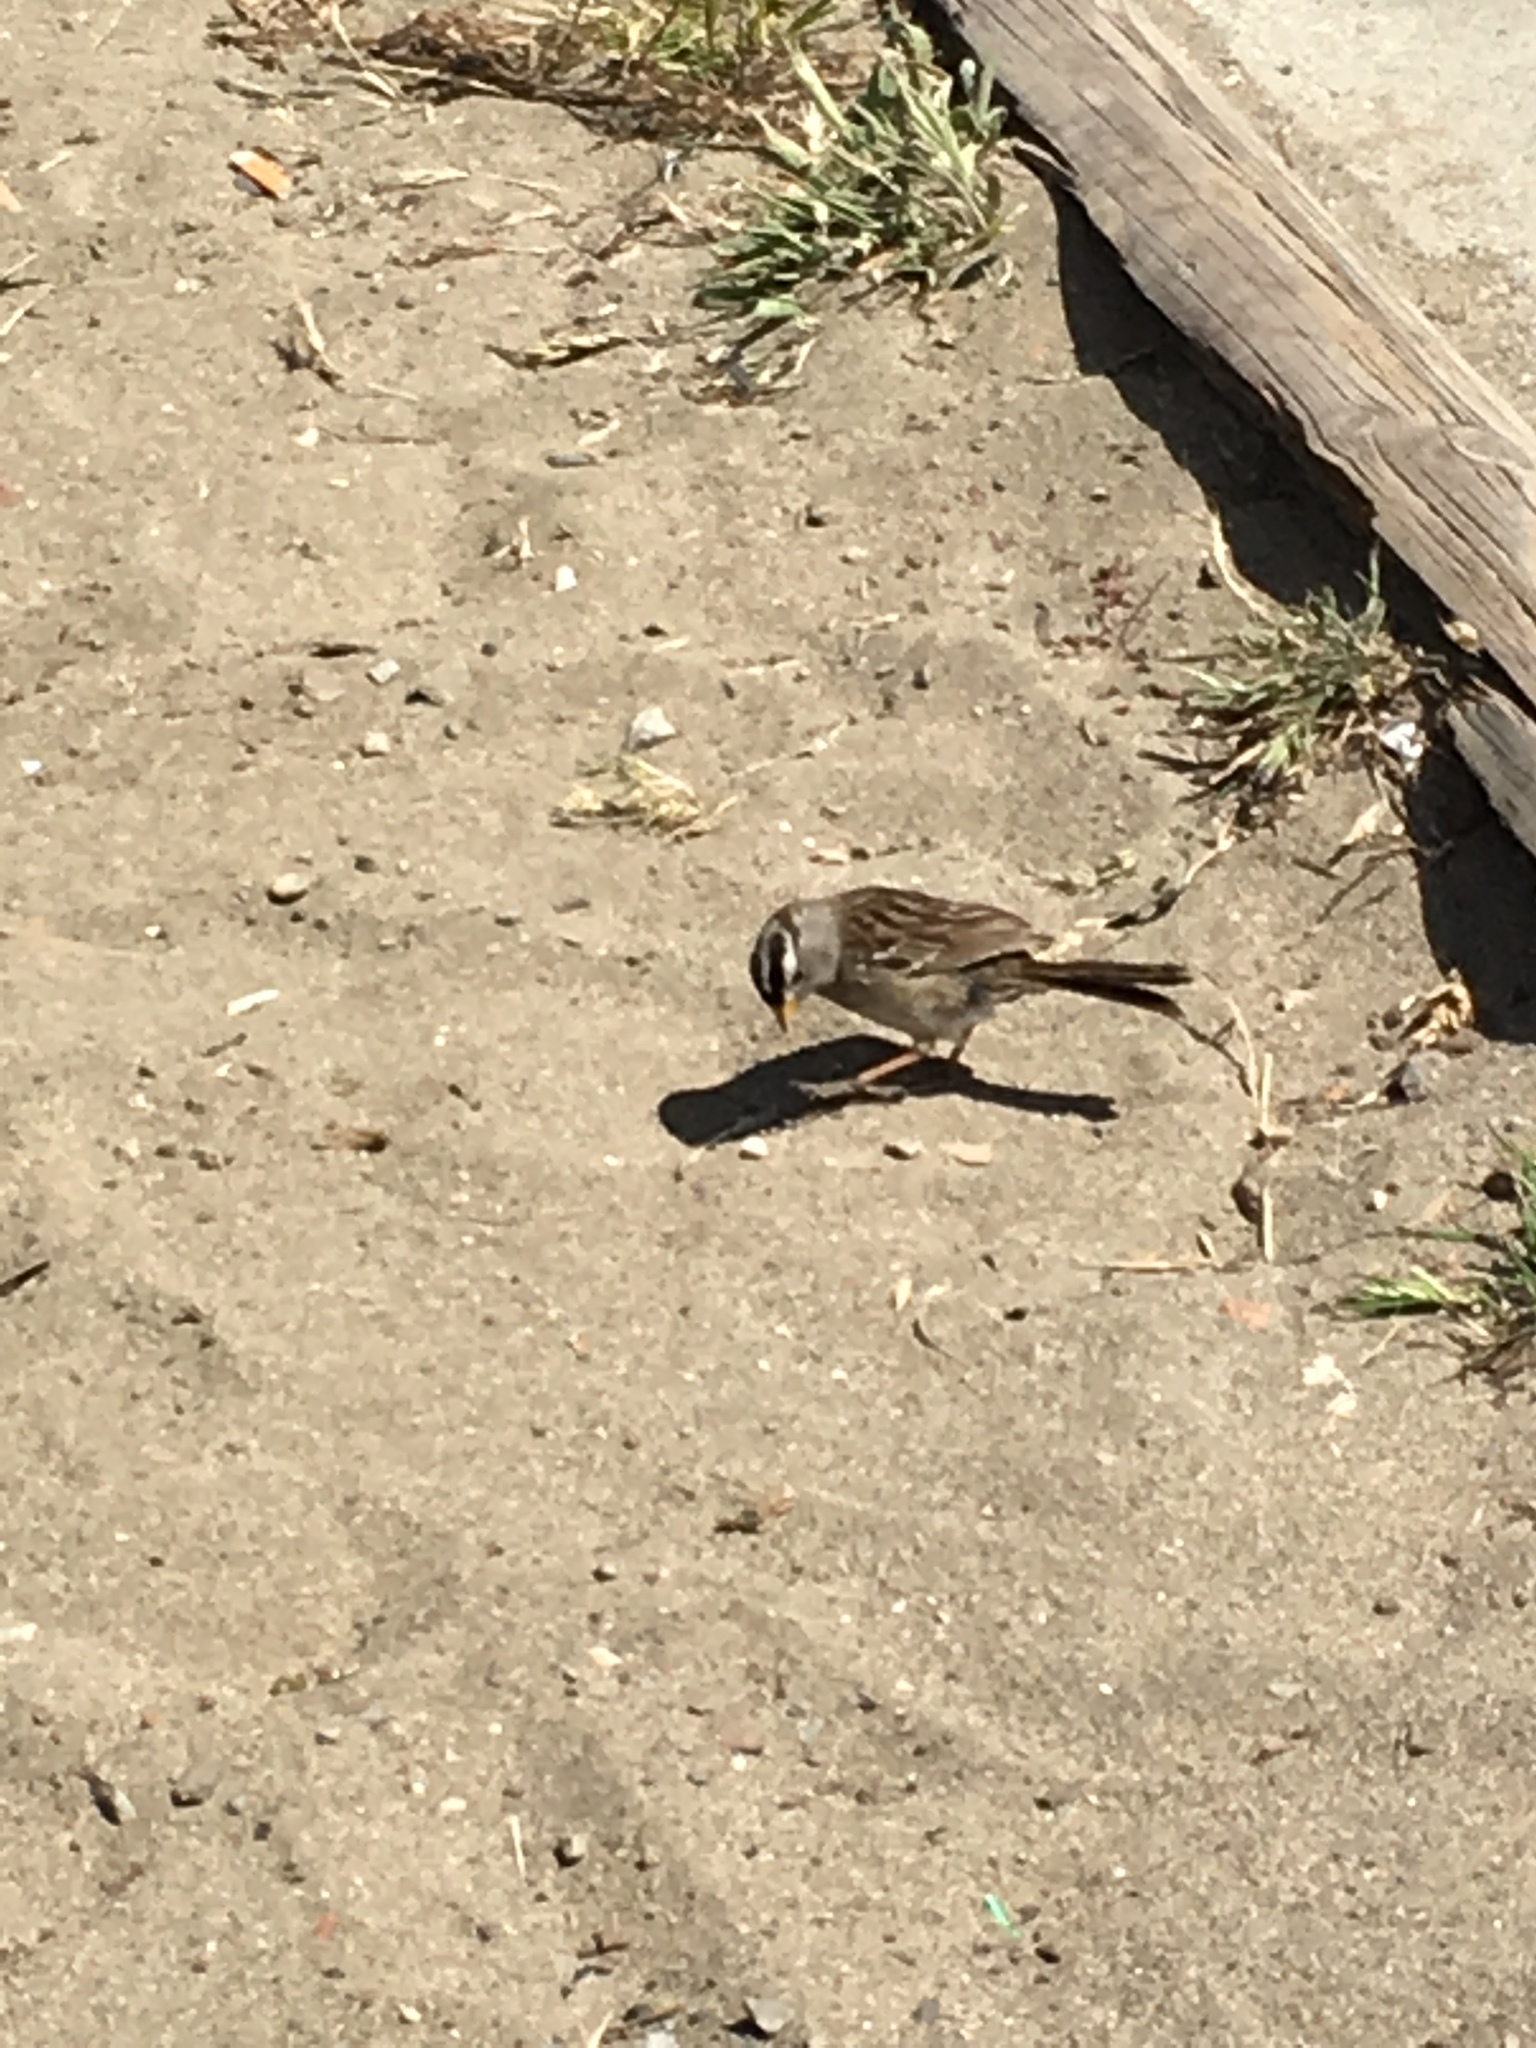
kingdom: Animalia
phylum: Chordata
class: Aves
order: Passeriformes
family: Passerellidae
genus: Zonotrichia
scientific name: Zonotrichia leucophrys
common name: White-crowned sparrow
